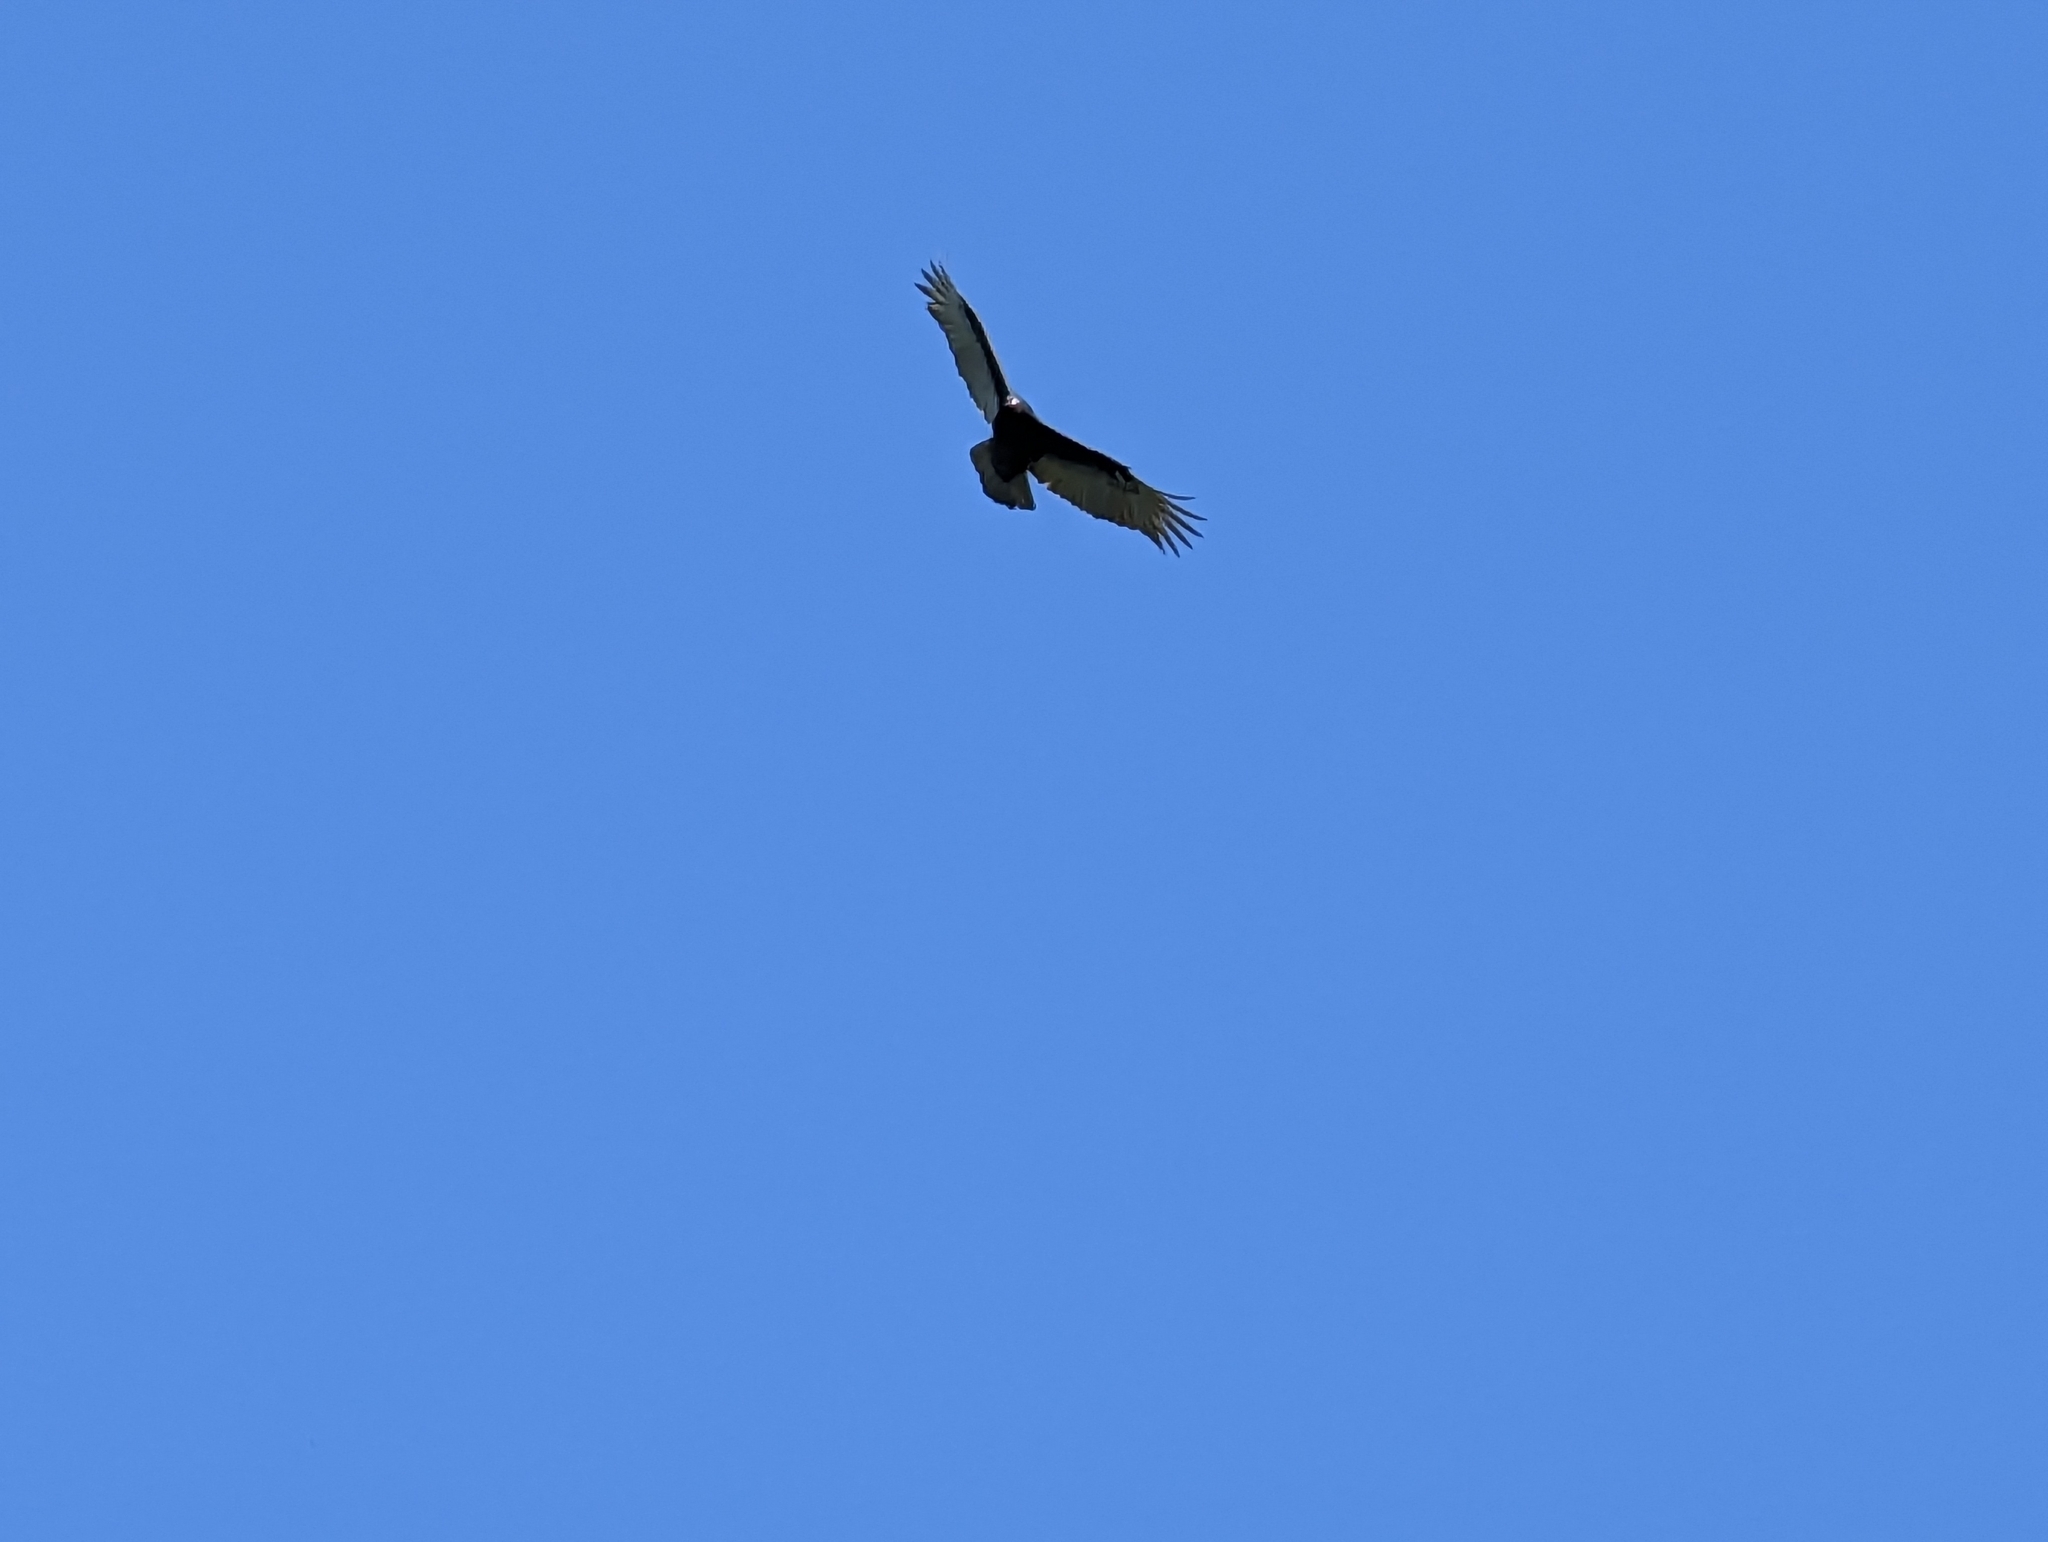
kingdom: Animalia
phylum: Chordata
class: Aves
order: Accipitriformes
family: Cathartidae
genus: Cathartes
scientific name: Cathartes aura
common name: Turkey vulture
